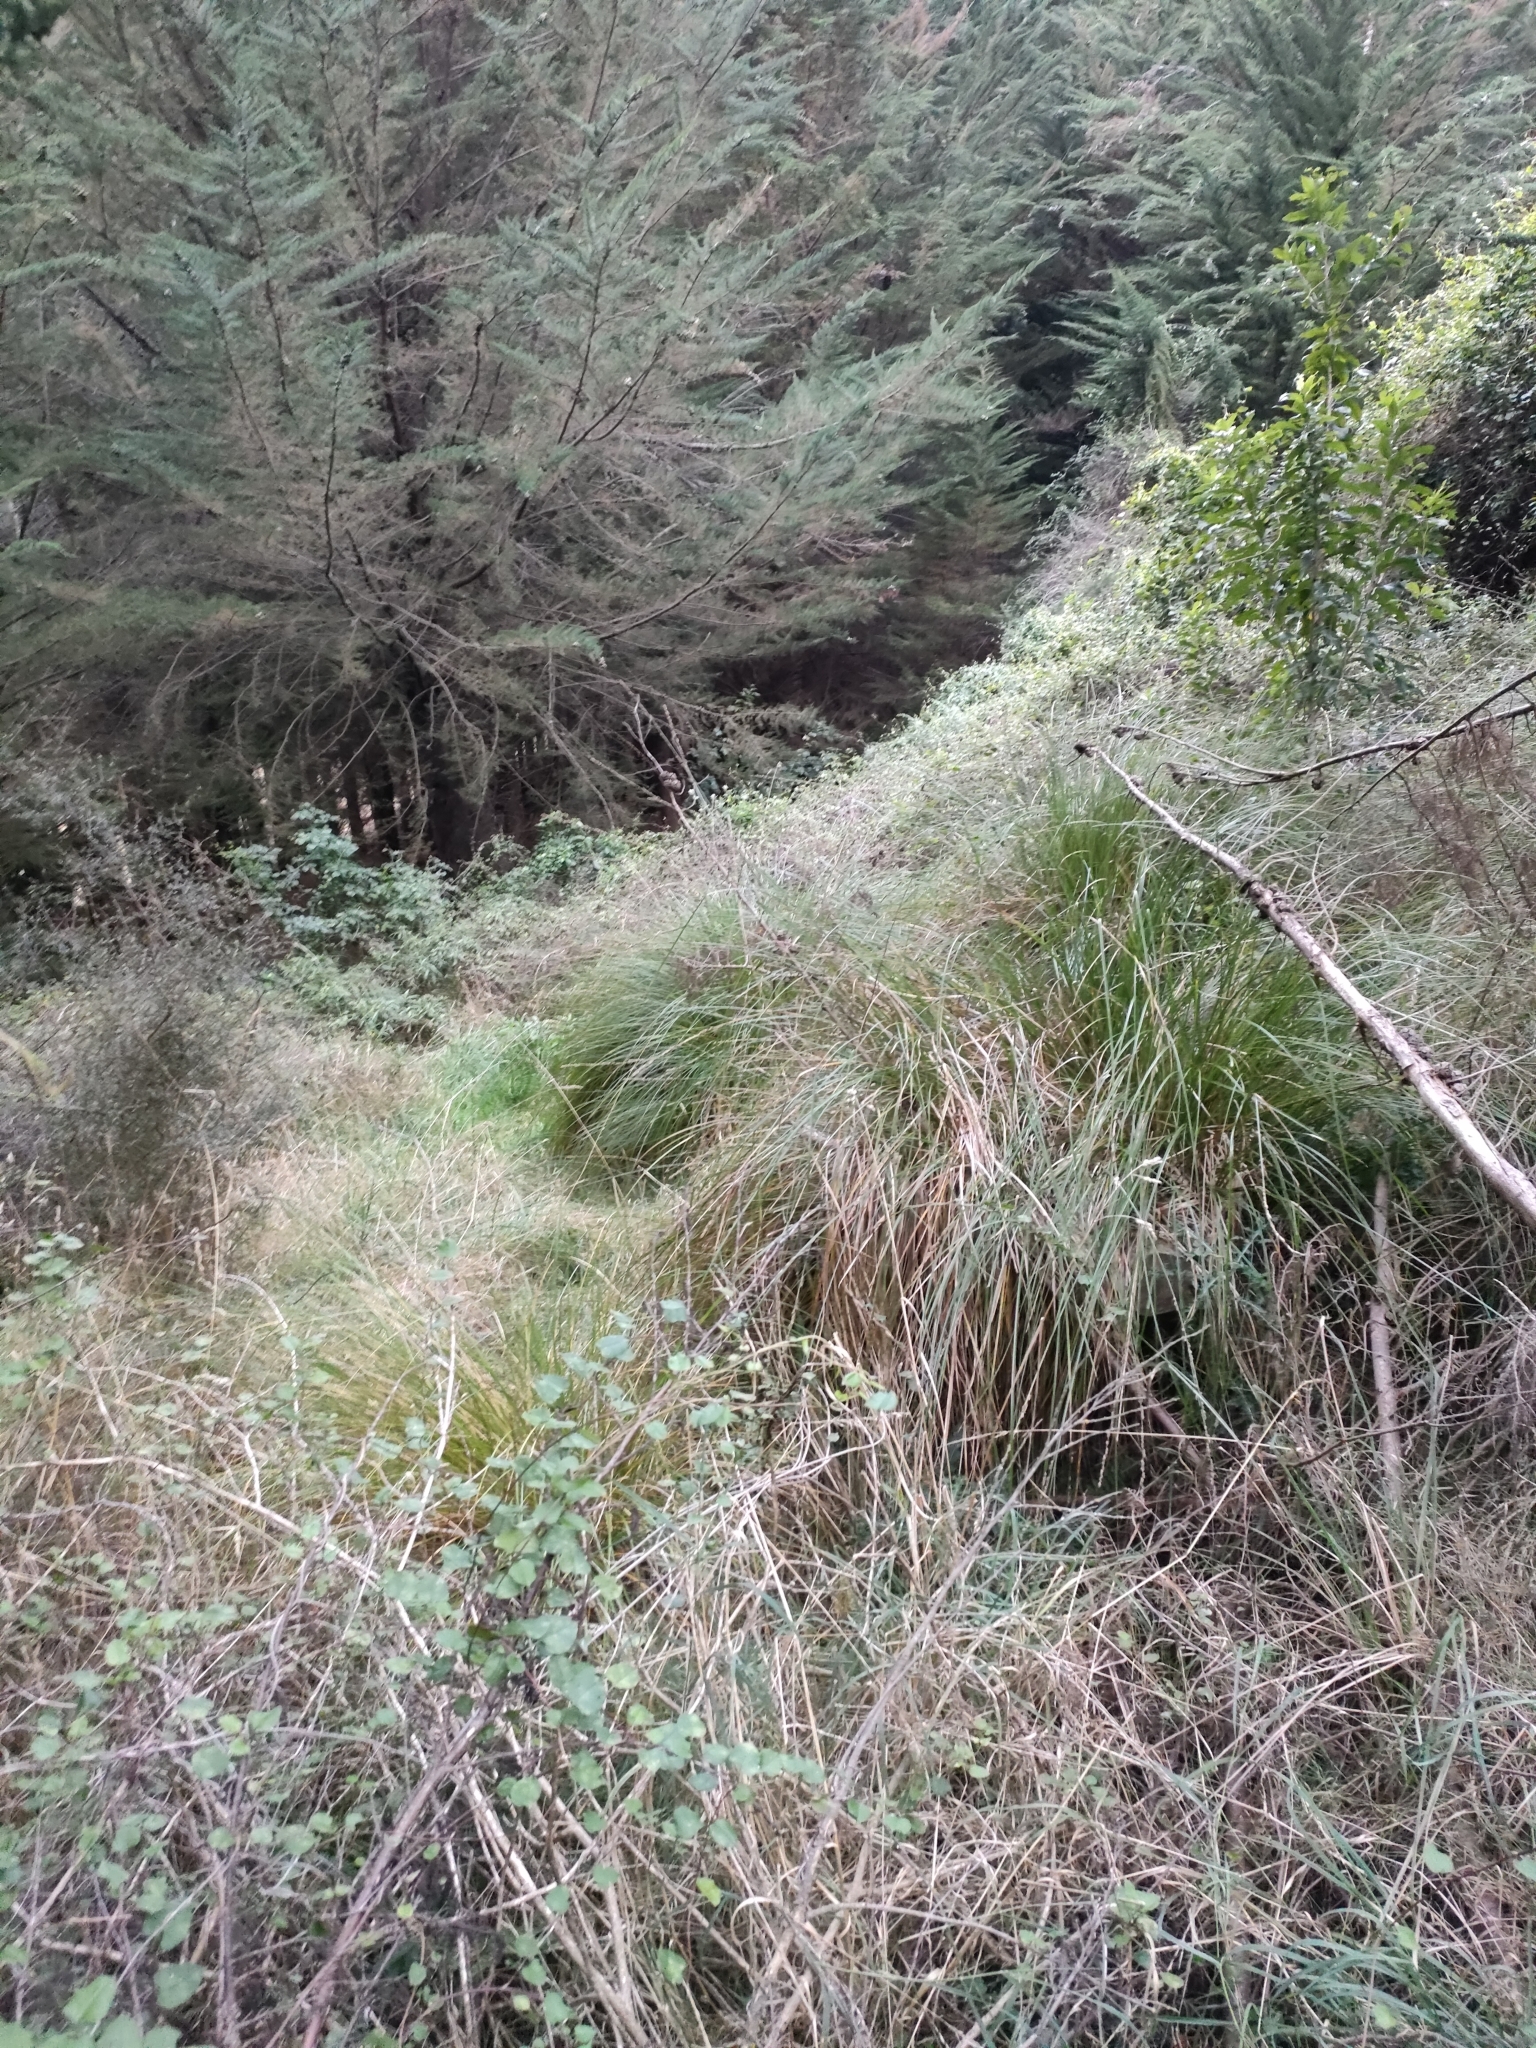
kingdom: Plantae
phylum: Tracheophyta
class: Liliopsida
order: Poales
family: Cyperaceae
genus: Carex
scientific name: Carex virgata
